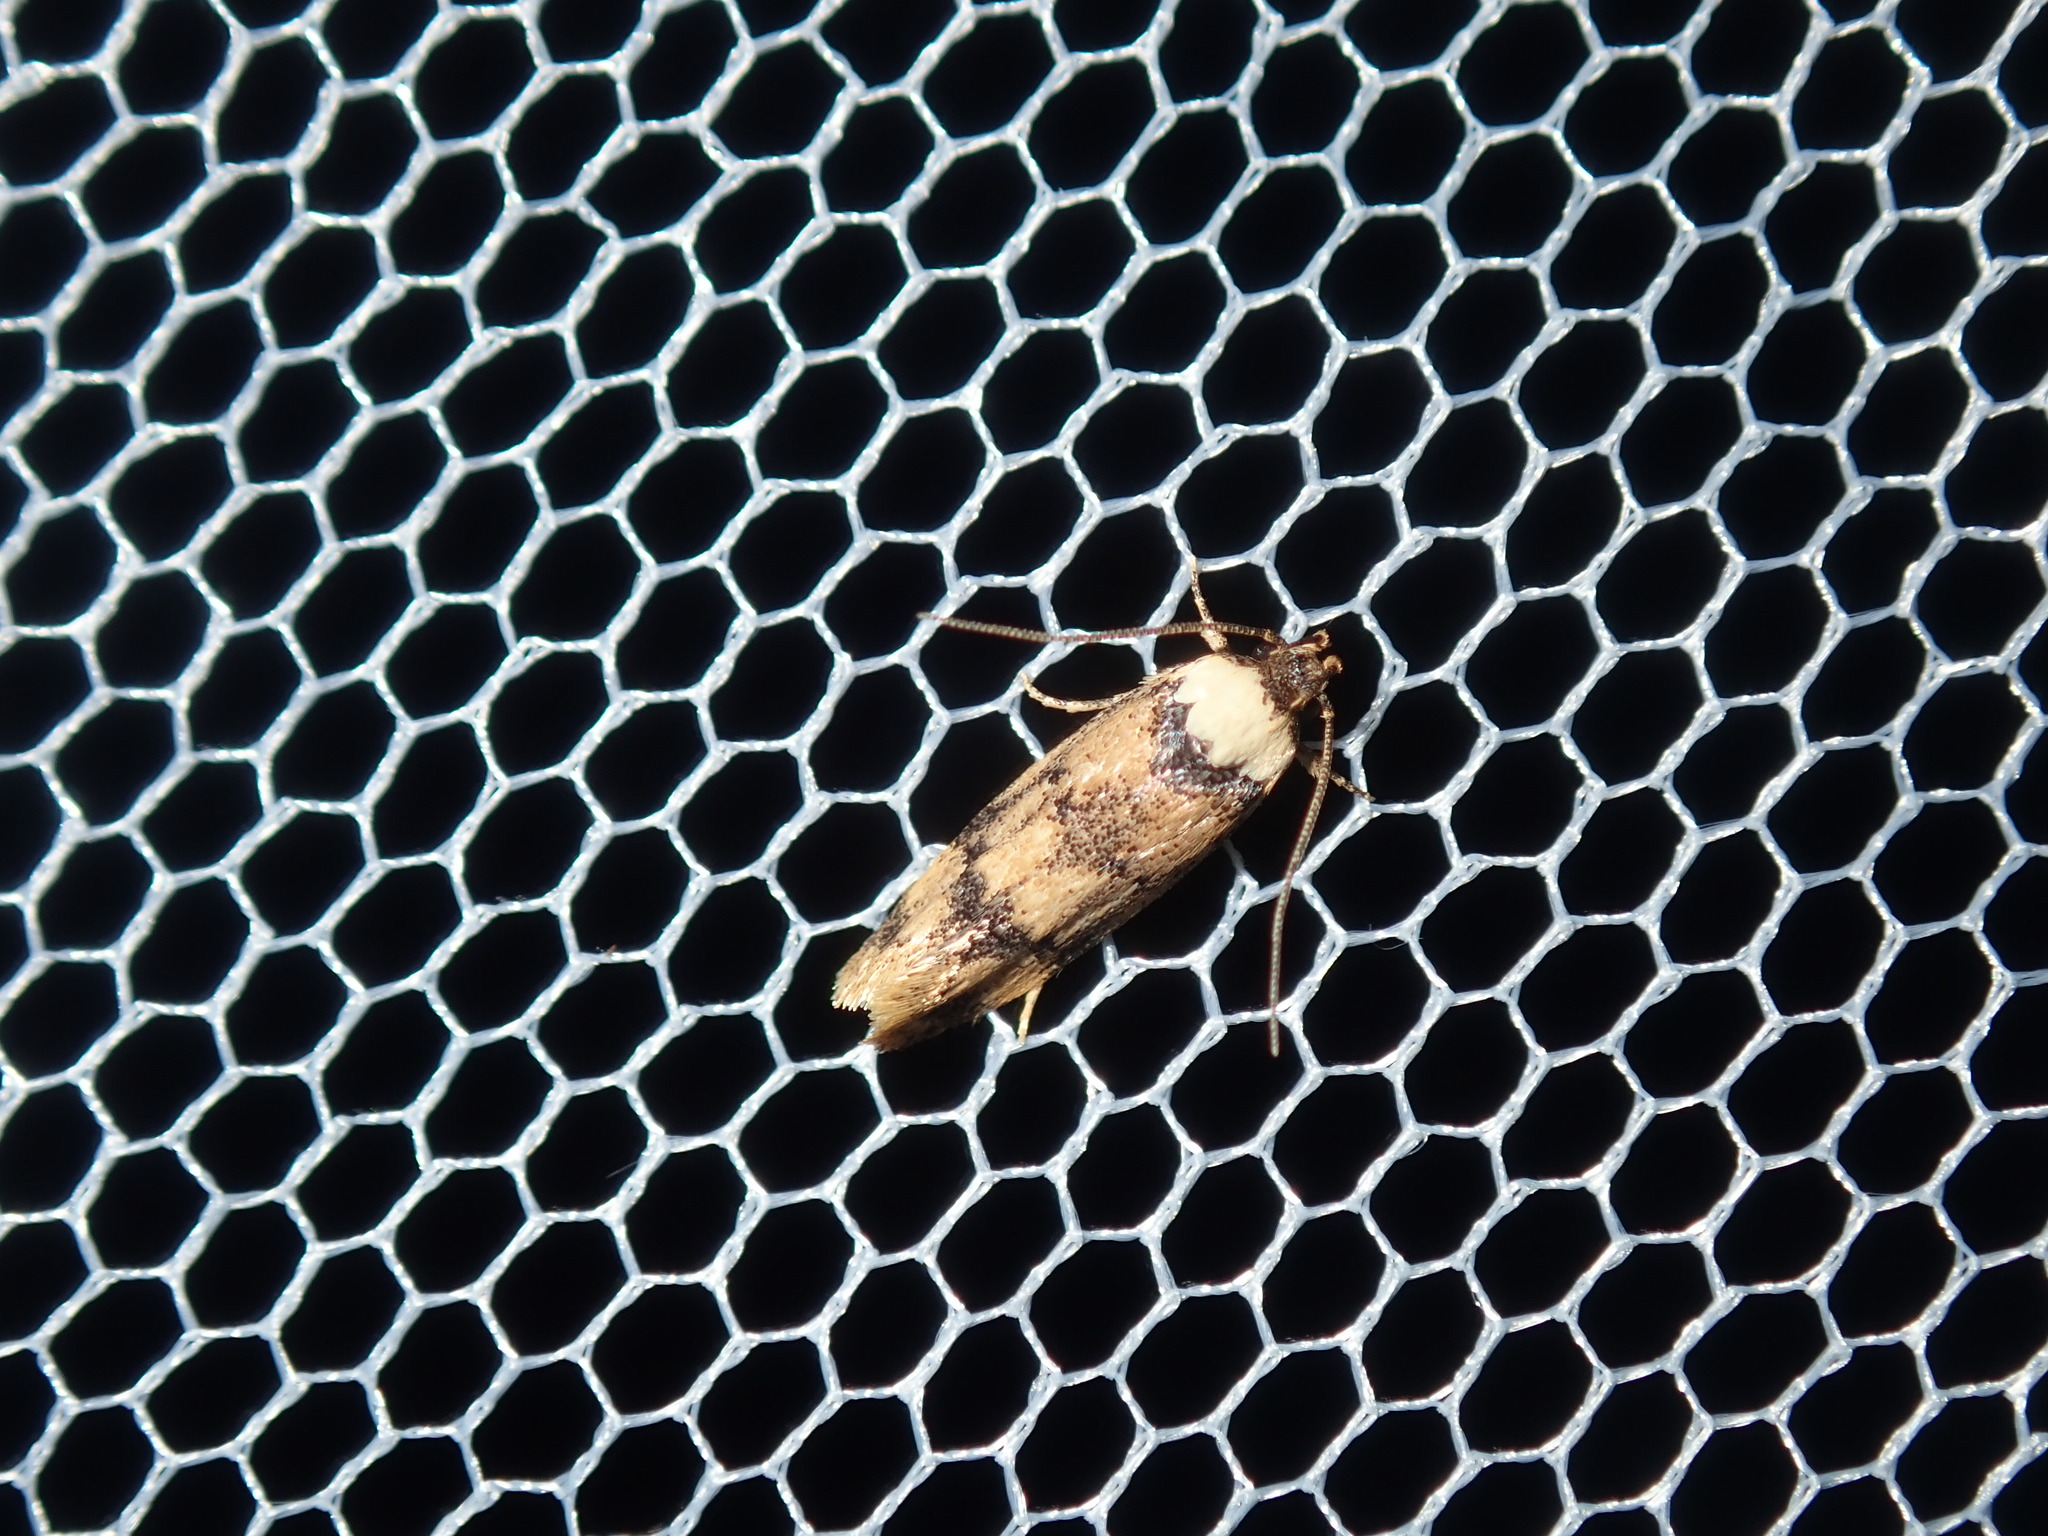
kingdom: Animalia
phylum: Arthropoda
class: Insecta
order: Lepidoptera
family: Oecophoridae
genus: Sphyrelata
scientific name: Sphyrelata
